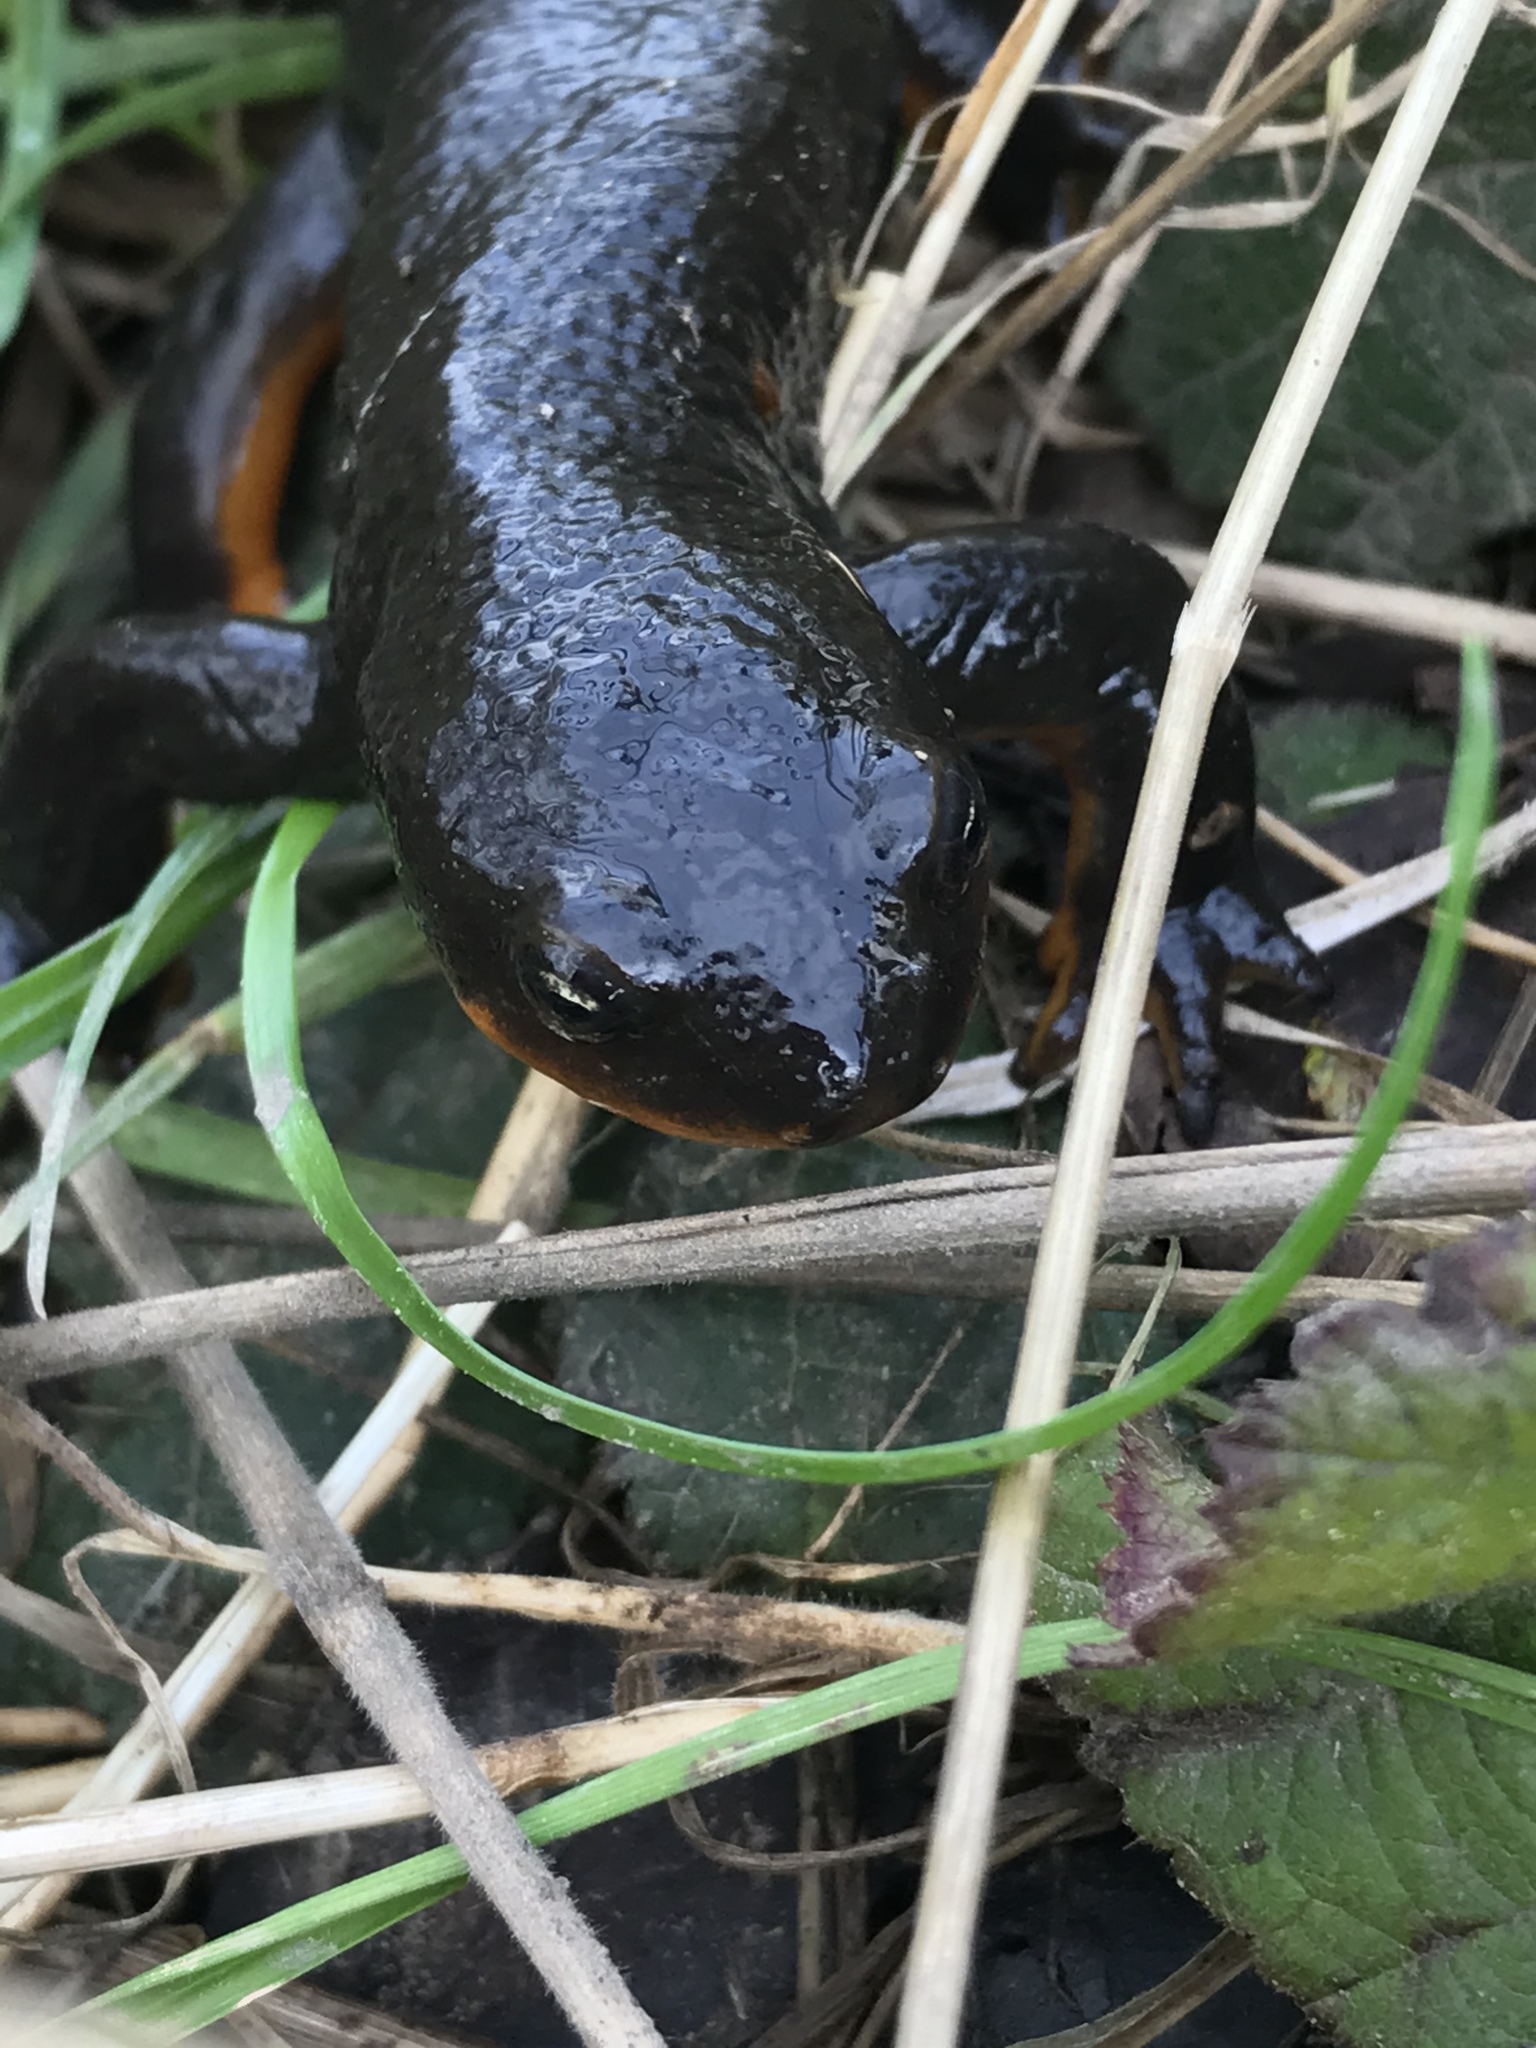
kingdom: Animalia
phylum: Chordata
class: Amphibia
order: Caudata
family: Salamandridae
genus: Taricha
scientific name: Taricha granulosa
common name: Roughskin newt
